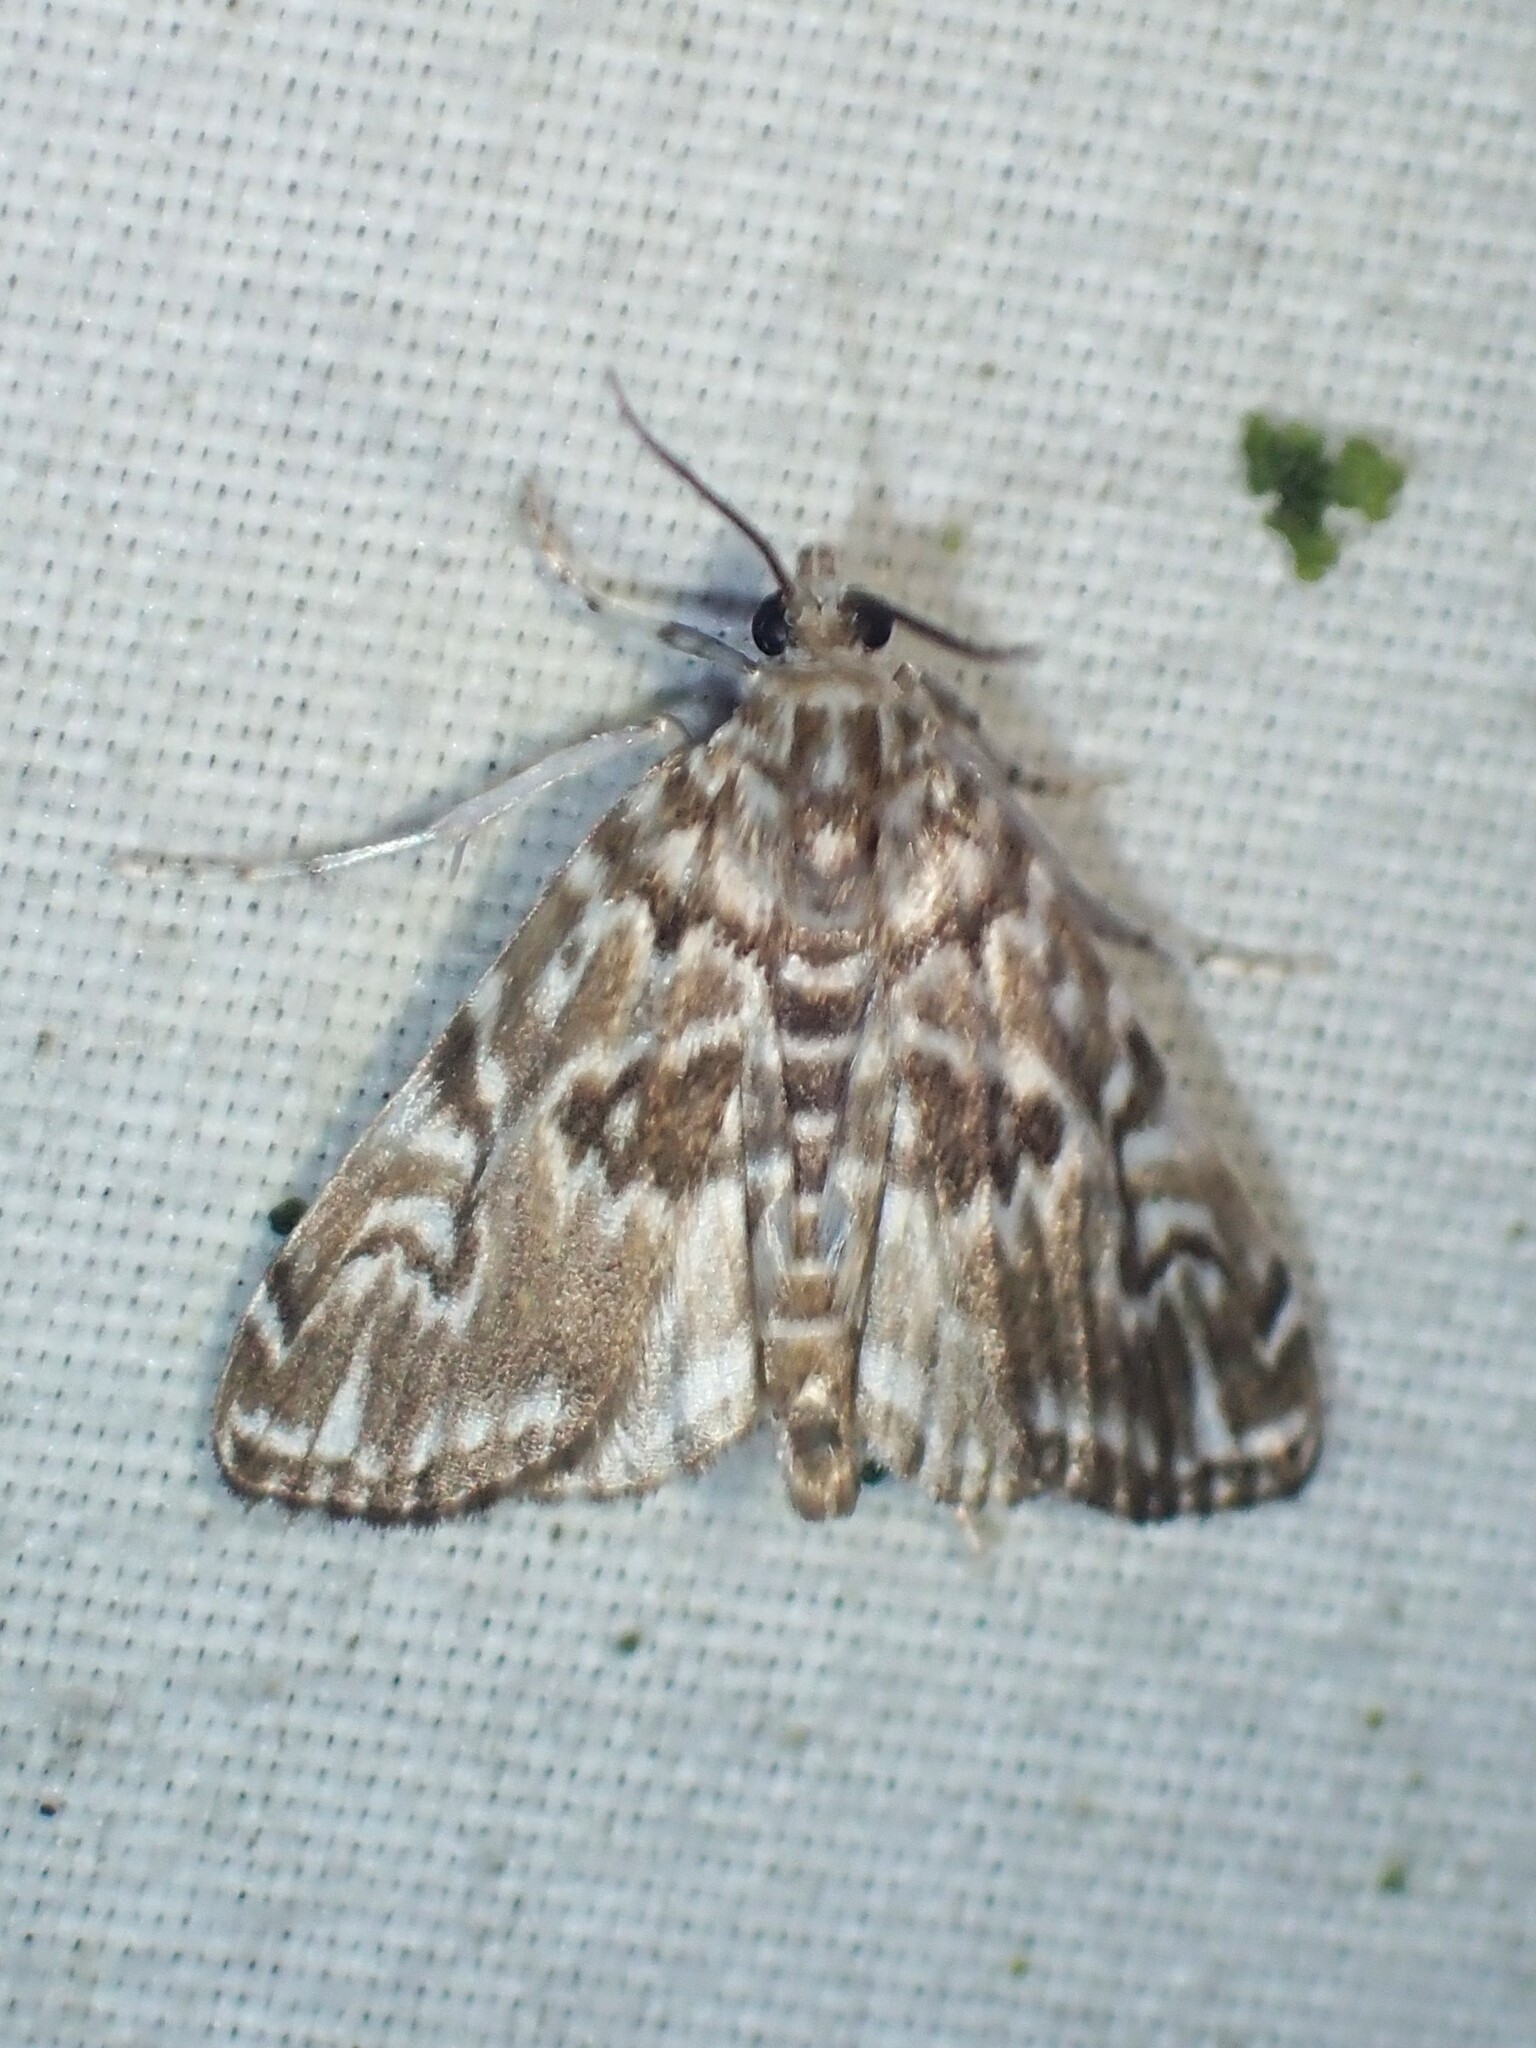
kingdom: Animalia
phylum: Arthropoda
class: Insecta
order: Lepidoptera
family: Crambidae
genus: Elophila
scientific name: Elophila gyralis
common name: Waterlily borer moth
